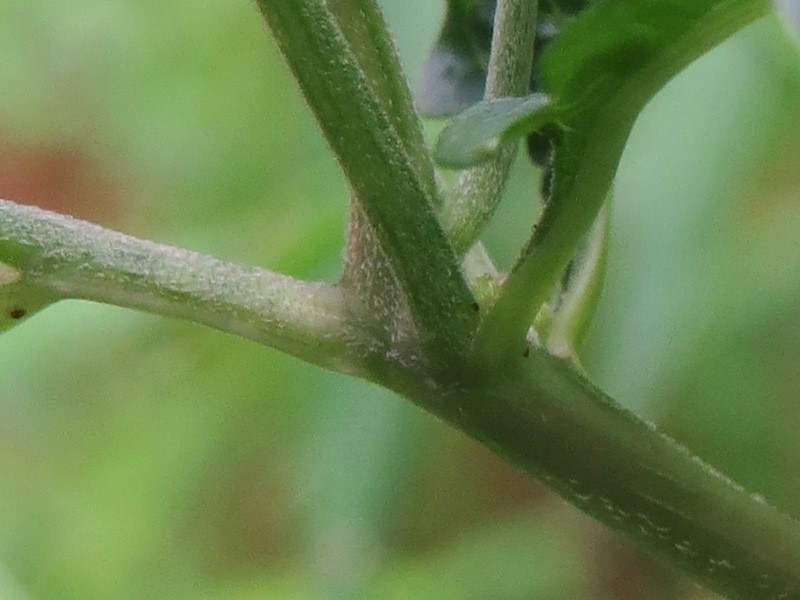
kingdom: Plantae
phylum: Tracheophyta
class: Magnoliopsida
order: Asterales
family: Asteraceae
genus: Ageratina
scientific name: Ageratina altissima
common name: White snakeroot
